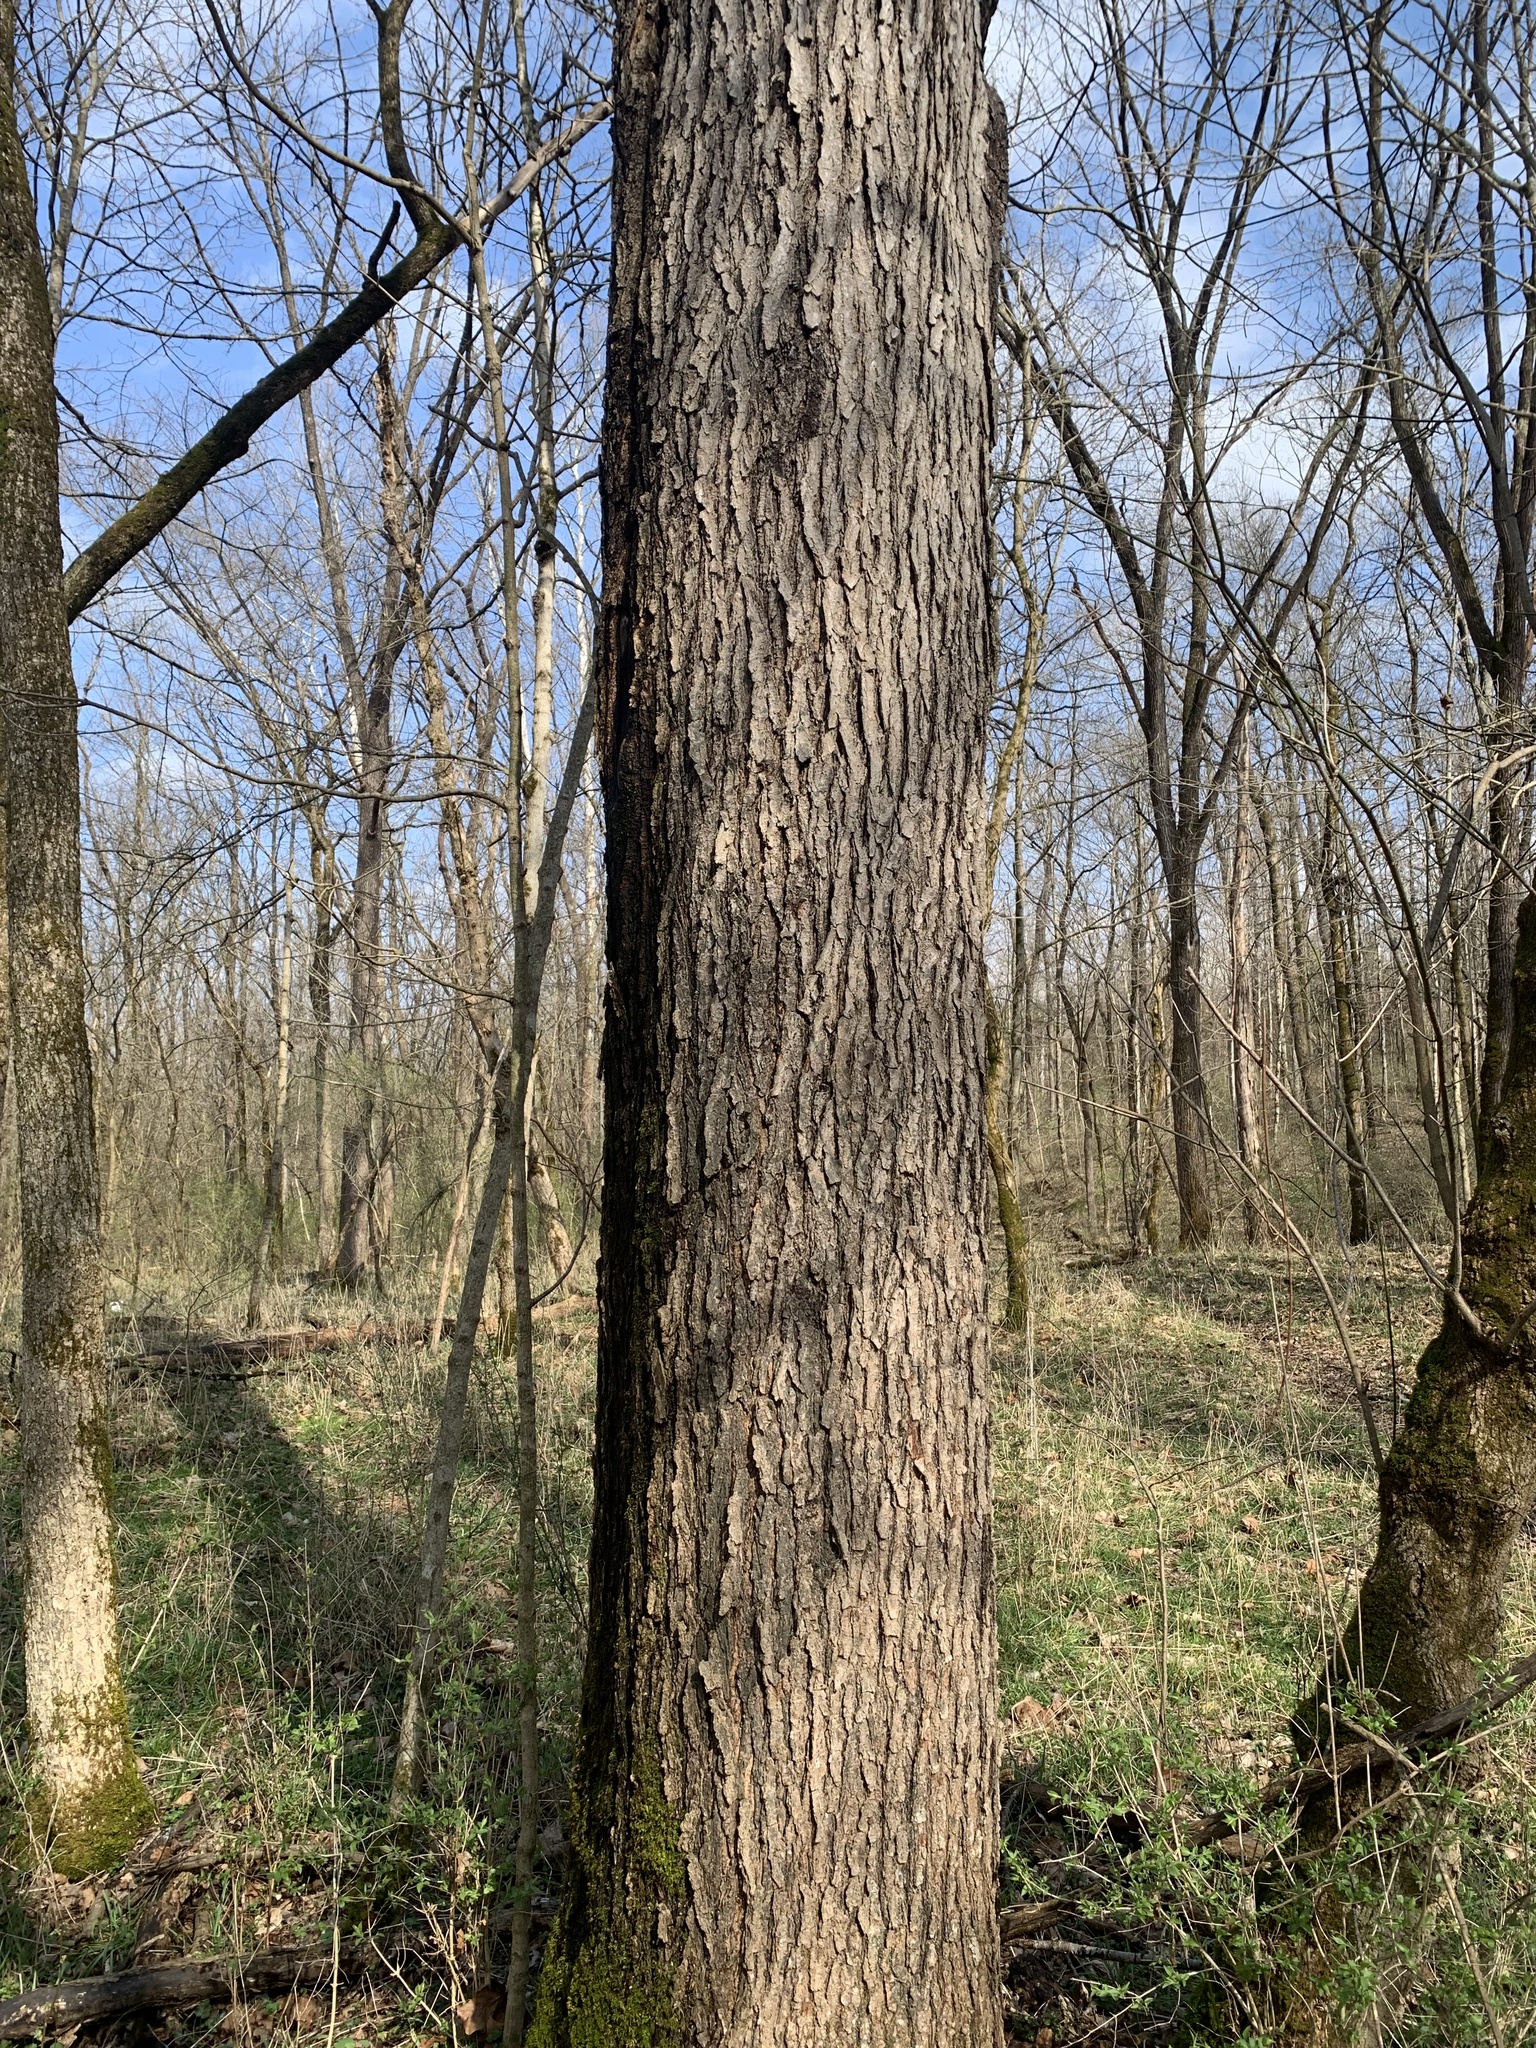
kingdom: Plantae
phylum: Tracheophyta
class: Magnoliopsida
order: Fabales
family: Fabaceae
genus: Gymnocladus
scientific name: Gymnocladus dioicus
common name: Kentucky coffee-tree
